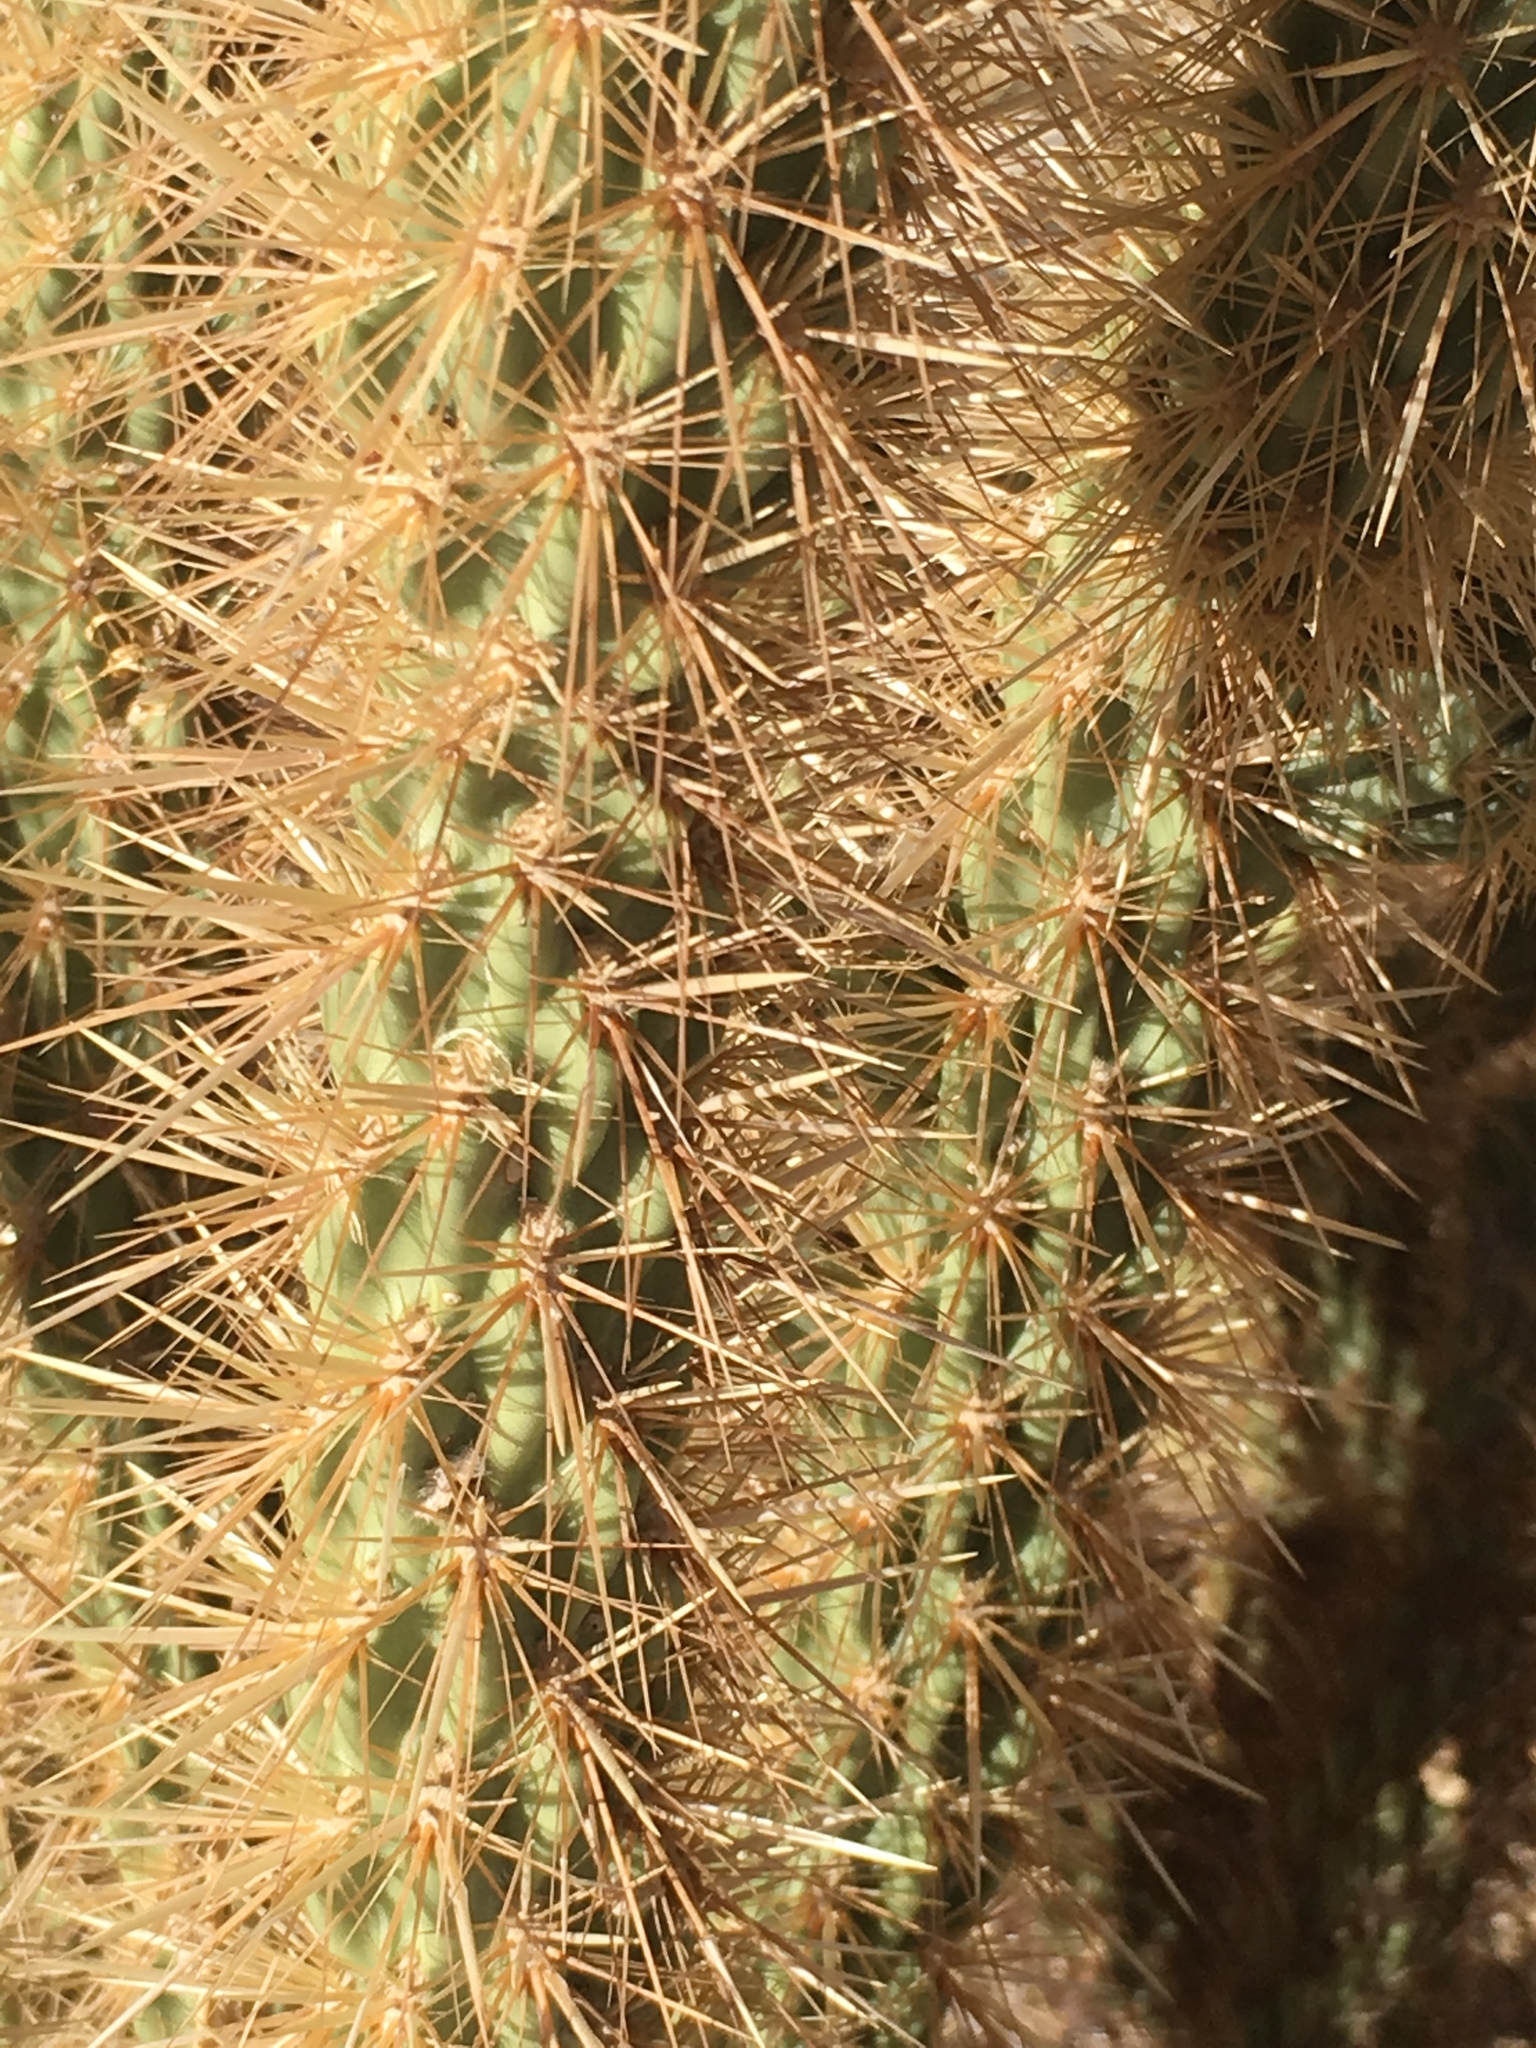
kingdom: Plantae
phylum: Tracheophyta
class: Magnoliopsida
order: Caryophyllales
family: Cactaceae
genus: Cylindropuntia
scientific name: Cylindropuntia ganderi
